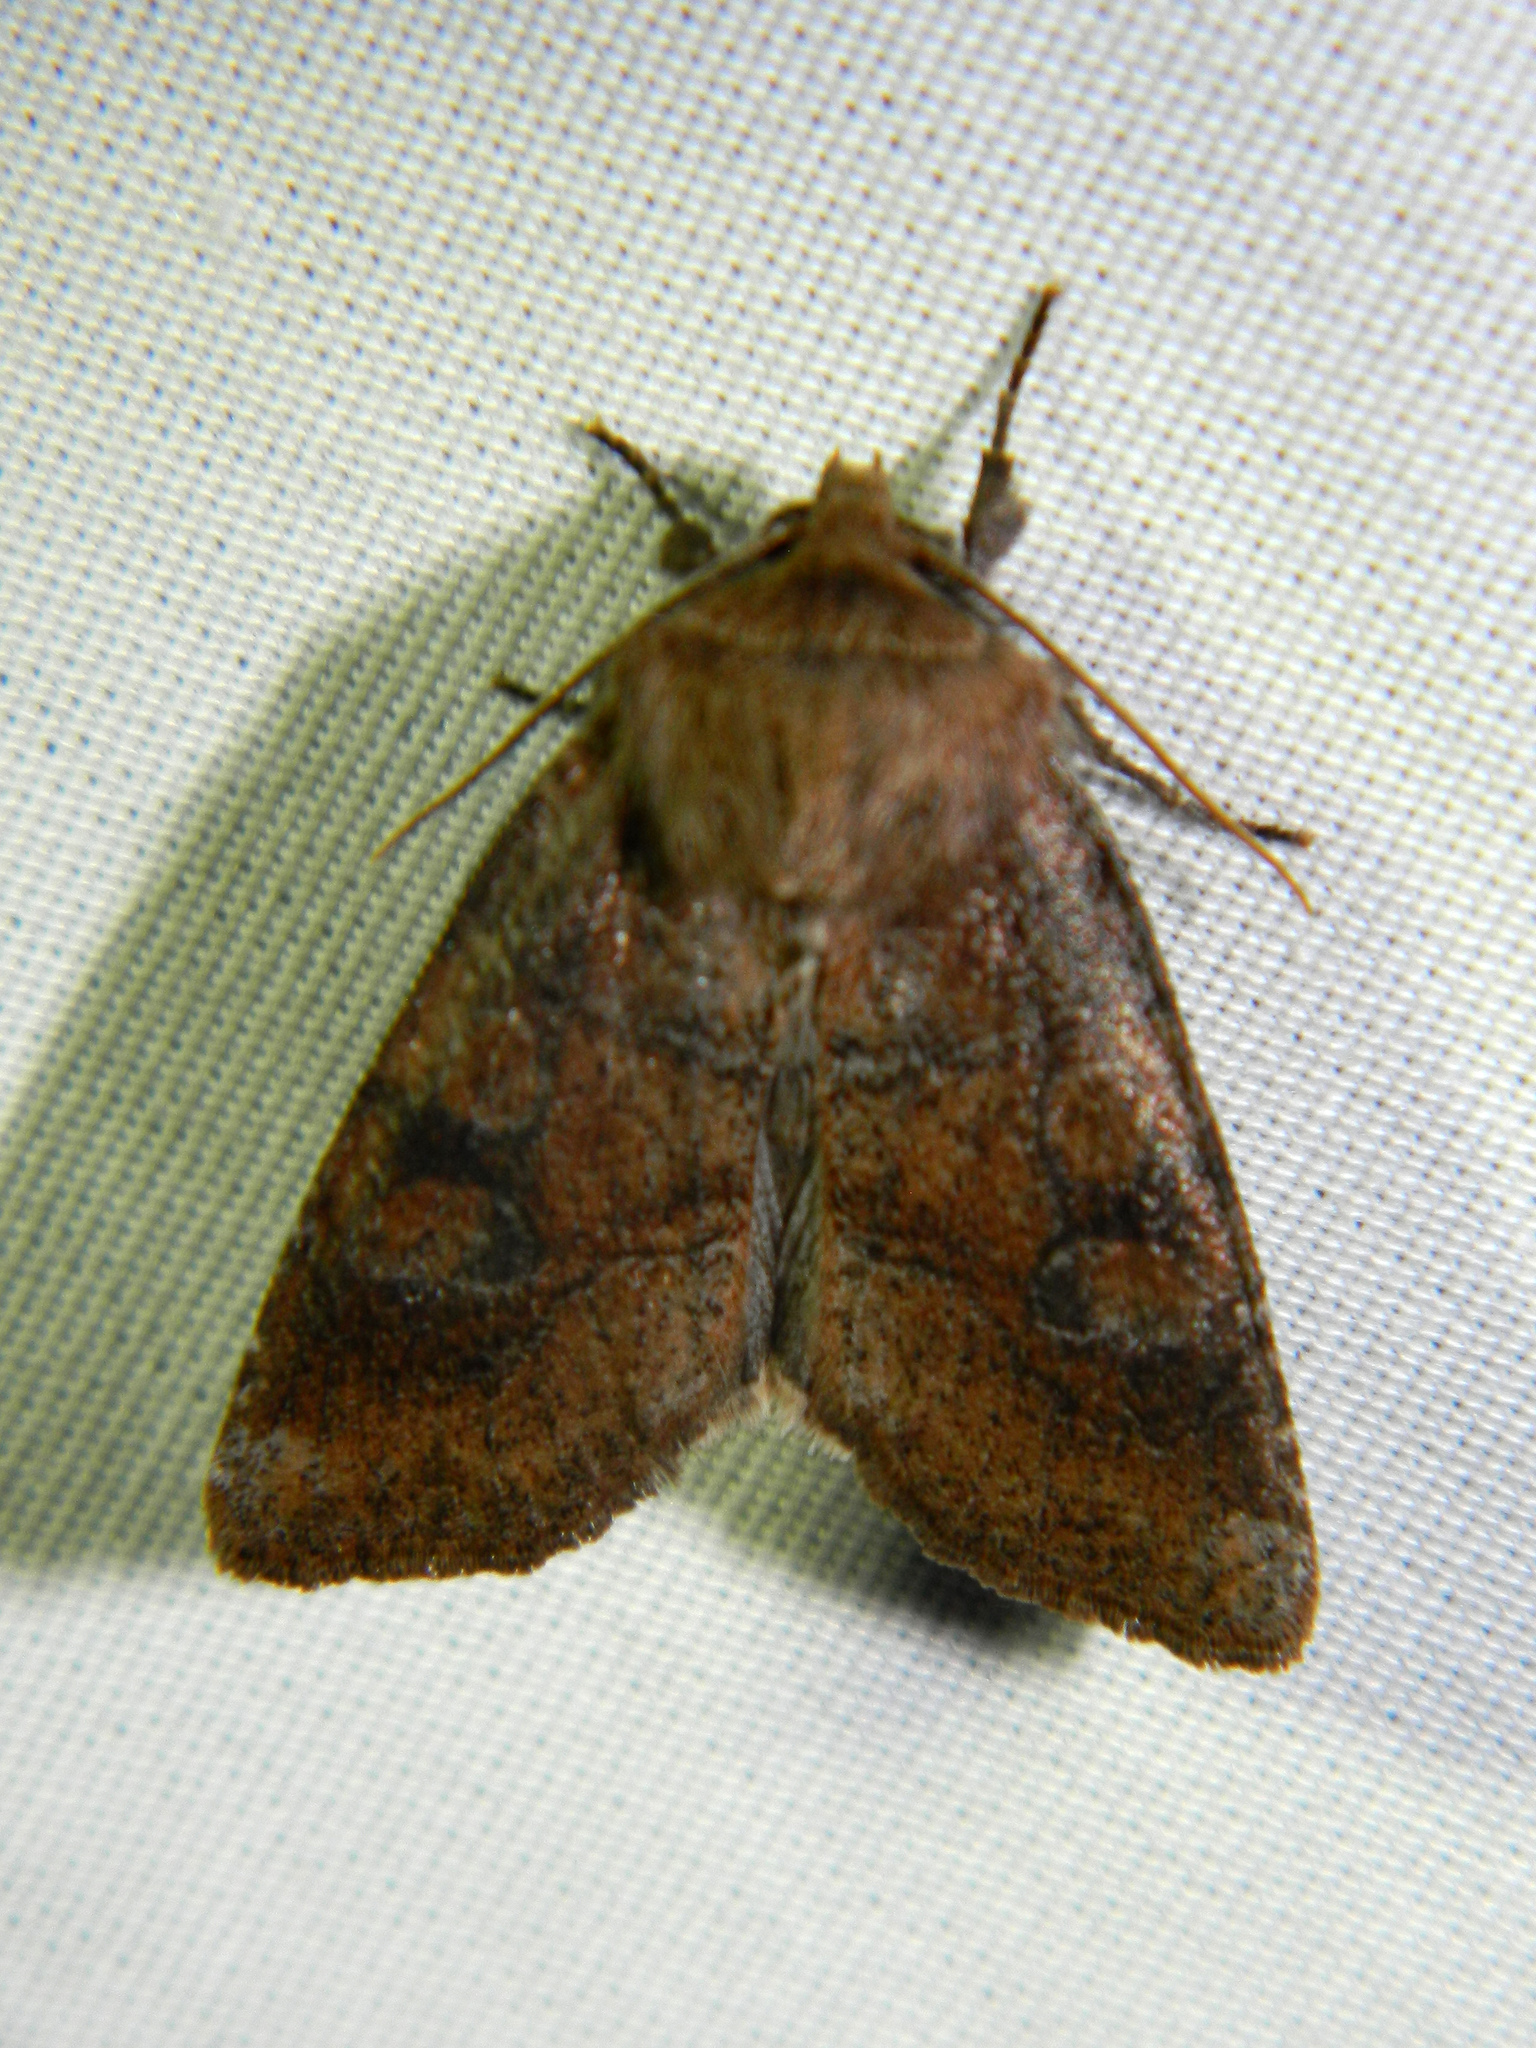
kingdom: Animalia
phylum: Arthropoda
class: Insecta
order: Lepidoptera
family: Noctuidae
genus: Crocigrapha
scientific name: Crocigrapha normani
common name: Norman's quaker
